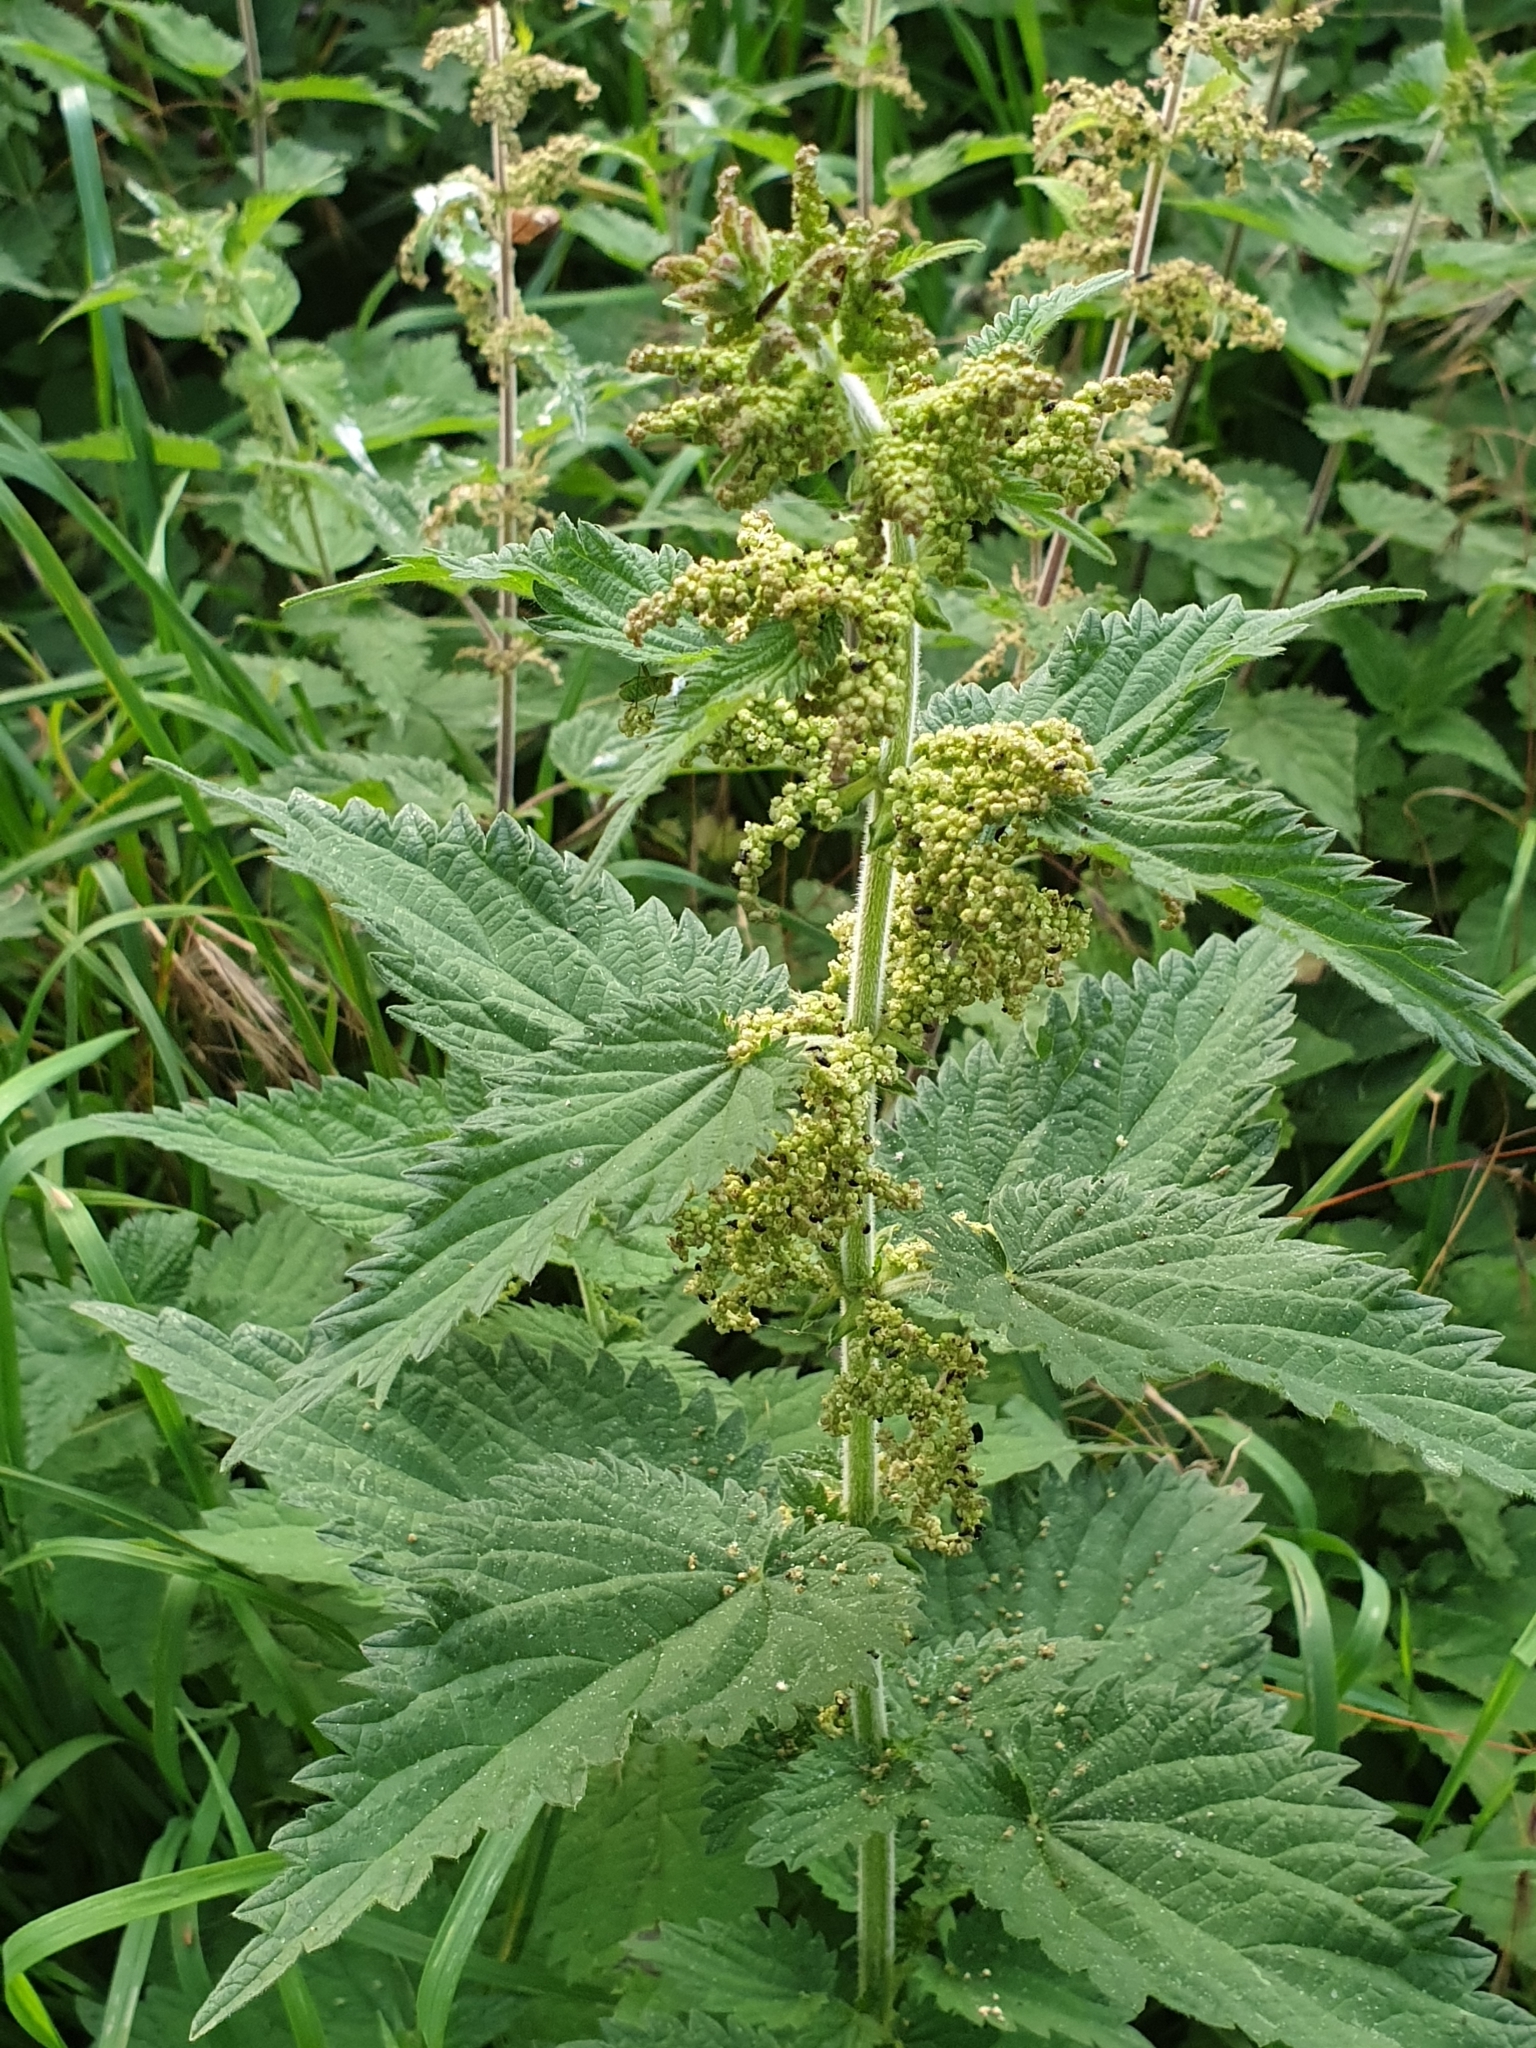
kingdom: Plantae
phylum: Tracheophyta
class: Magnoliopsida
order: Rosales
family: Urticaceae
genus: Urtica
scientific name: Urtica dioica
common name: Common nettle
